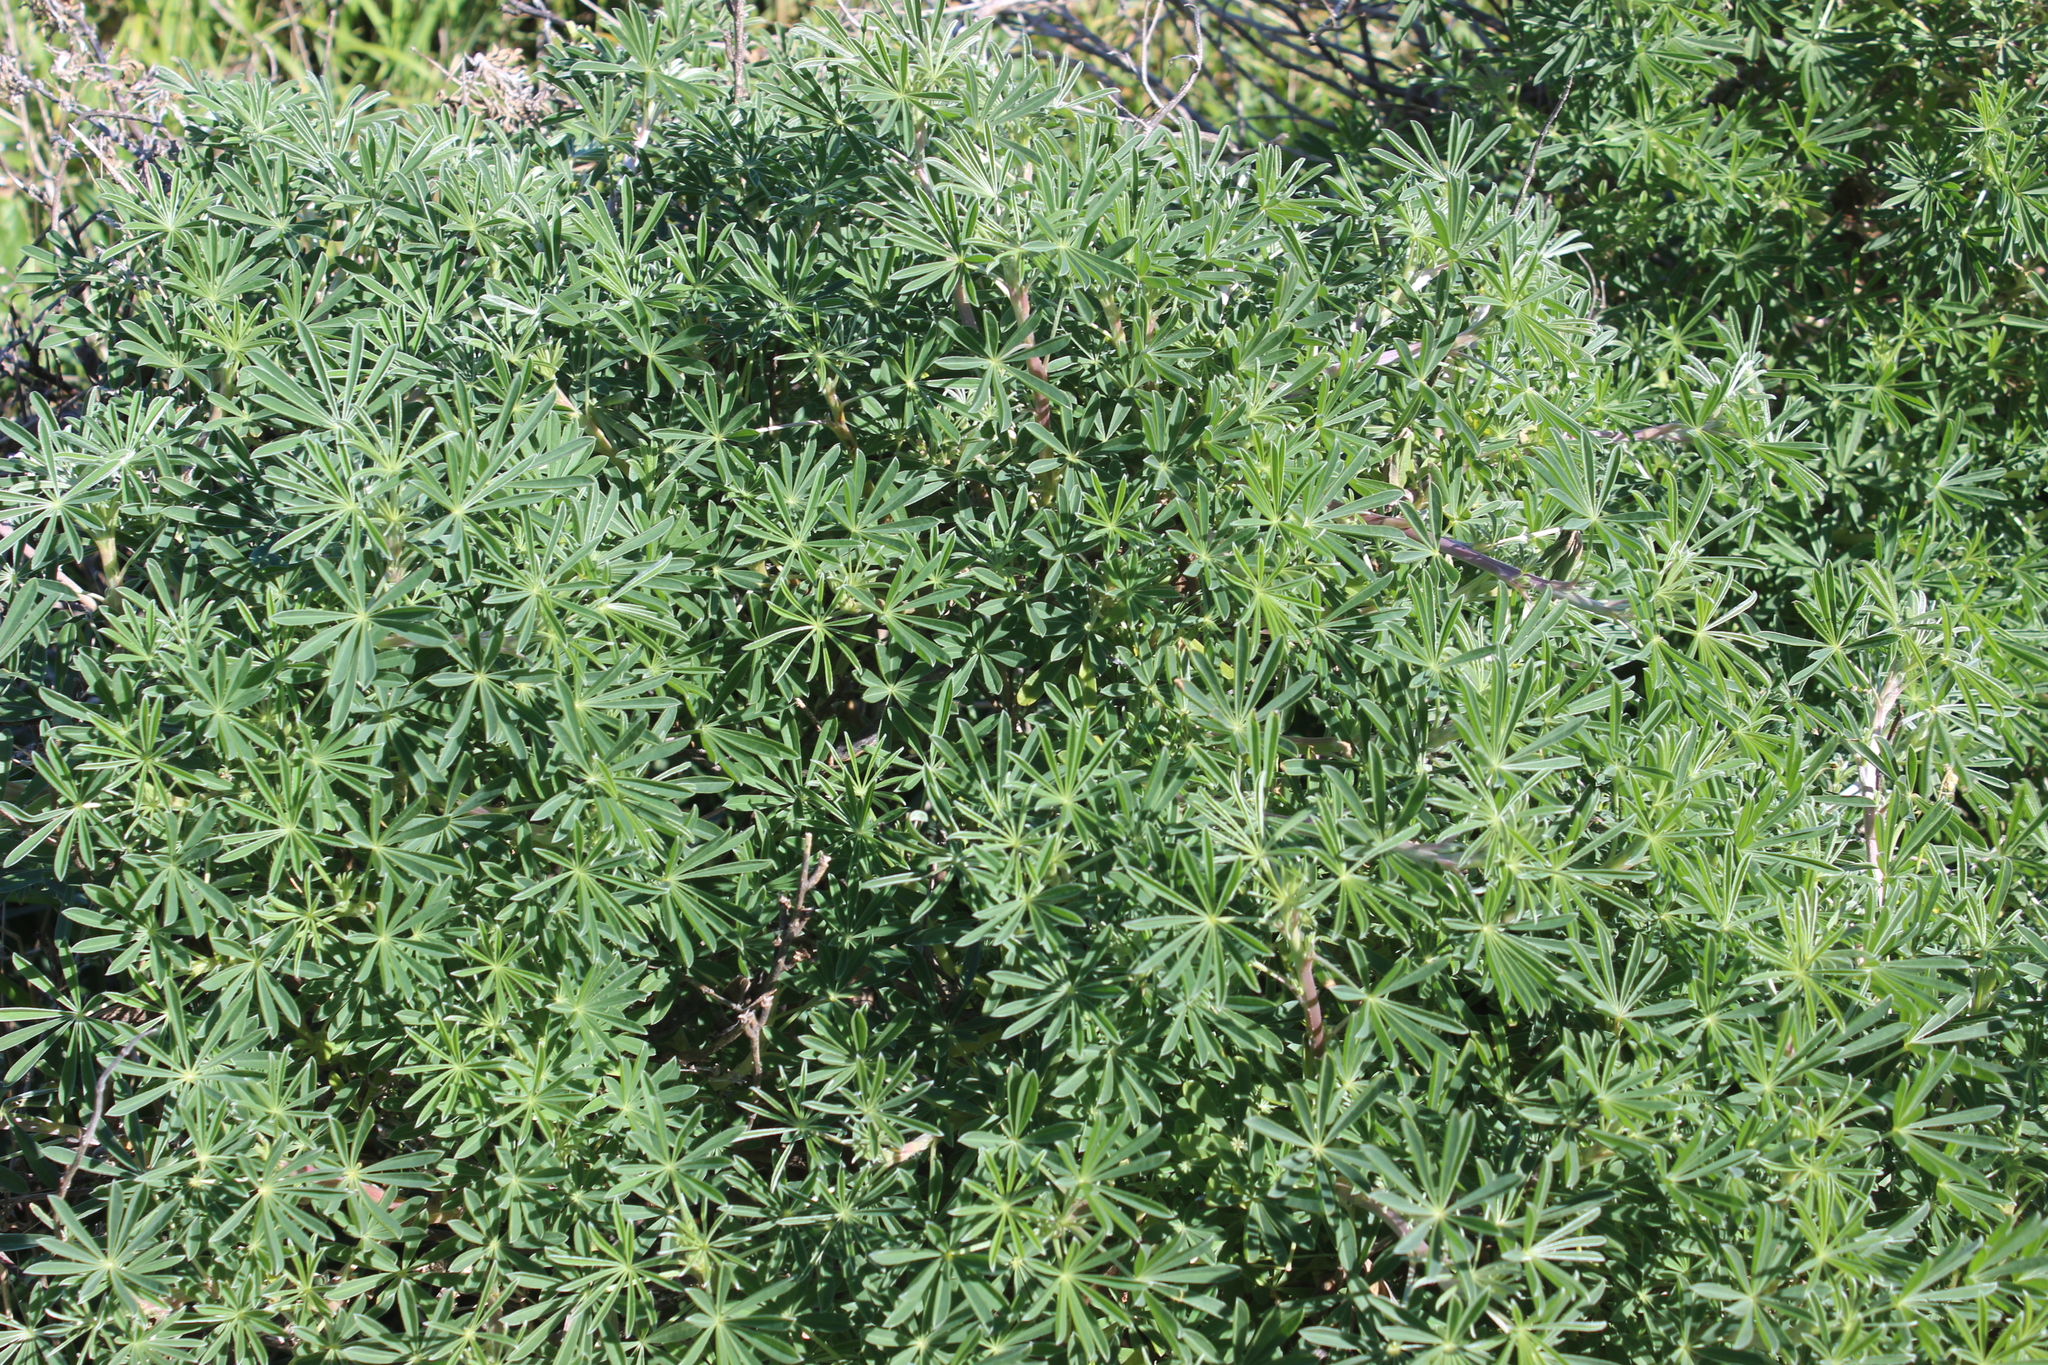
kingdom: Plantae
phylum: Tracheophyta
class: Magnoliopsida
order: Fabales
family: Fabaceae
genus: Lupinus
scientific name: Lupinus arboreus
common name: Yellow bush lupine
